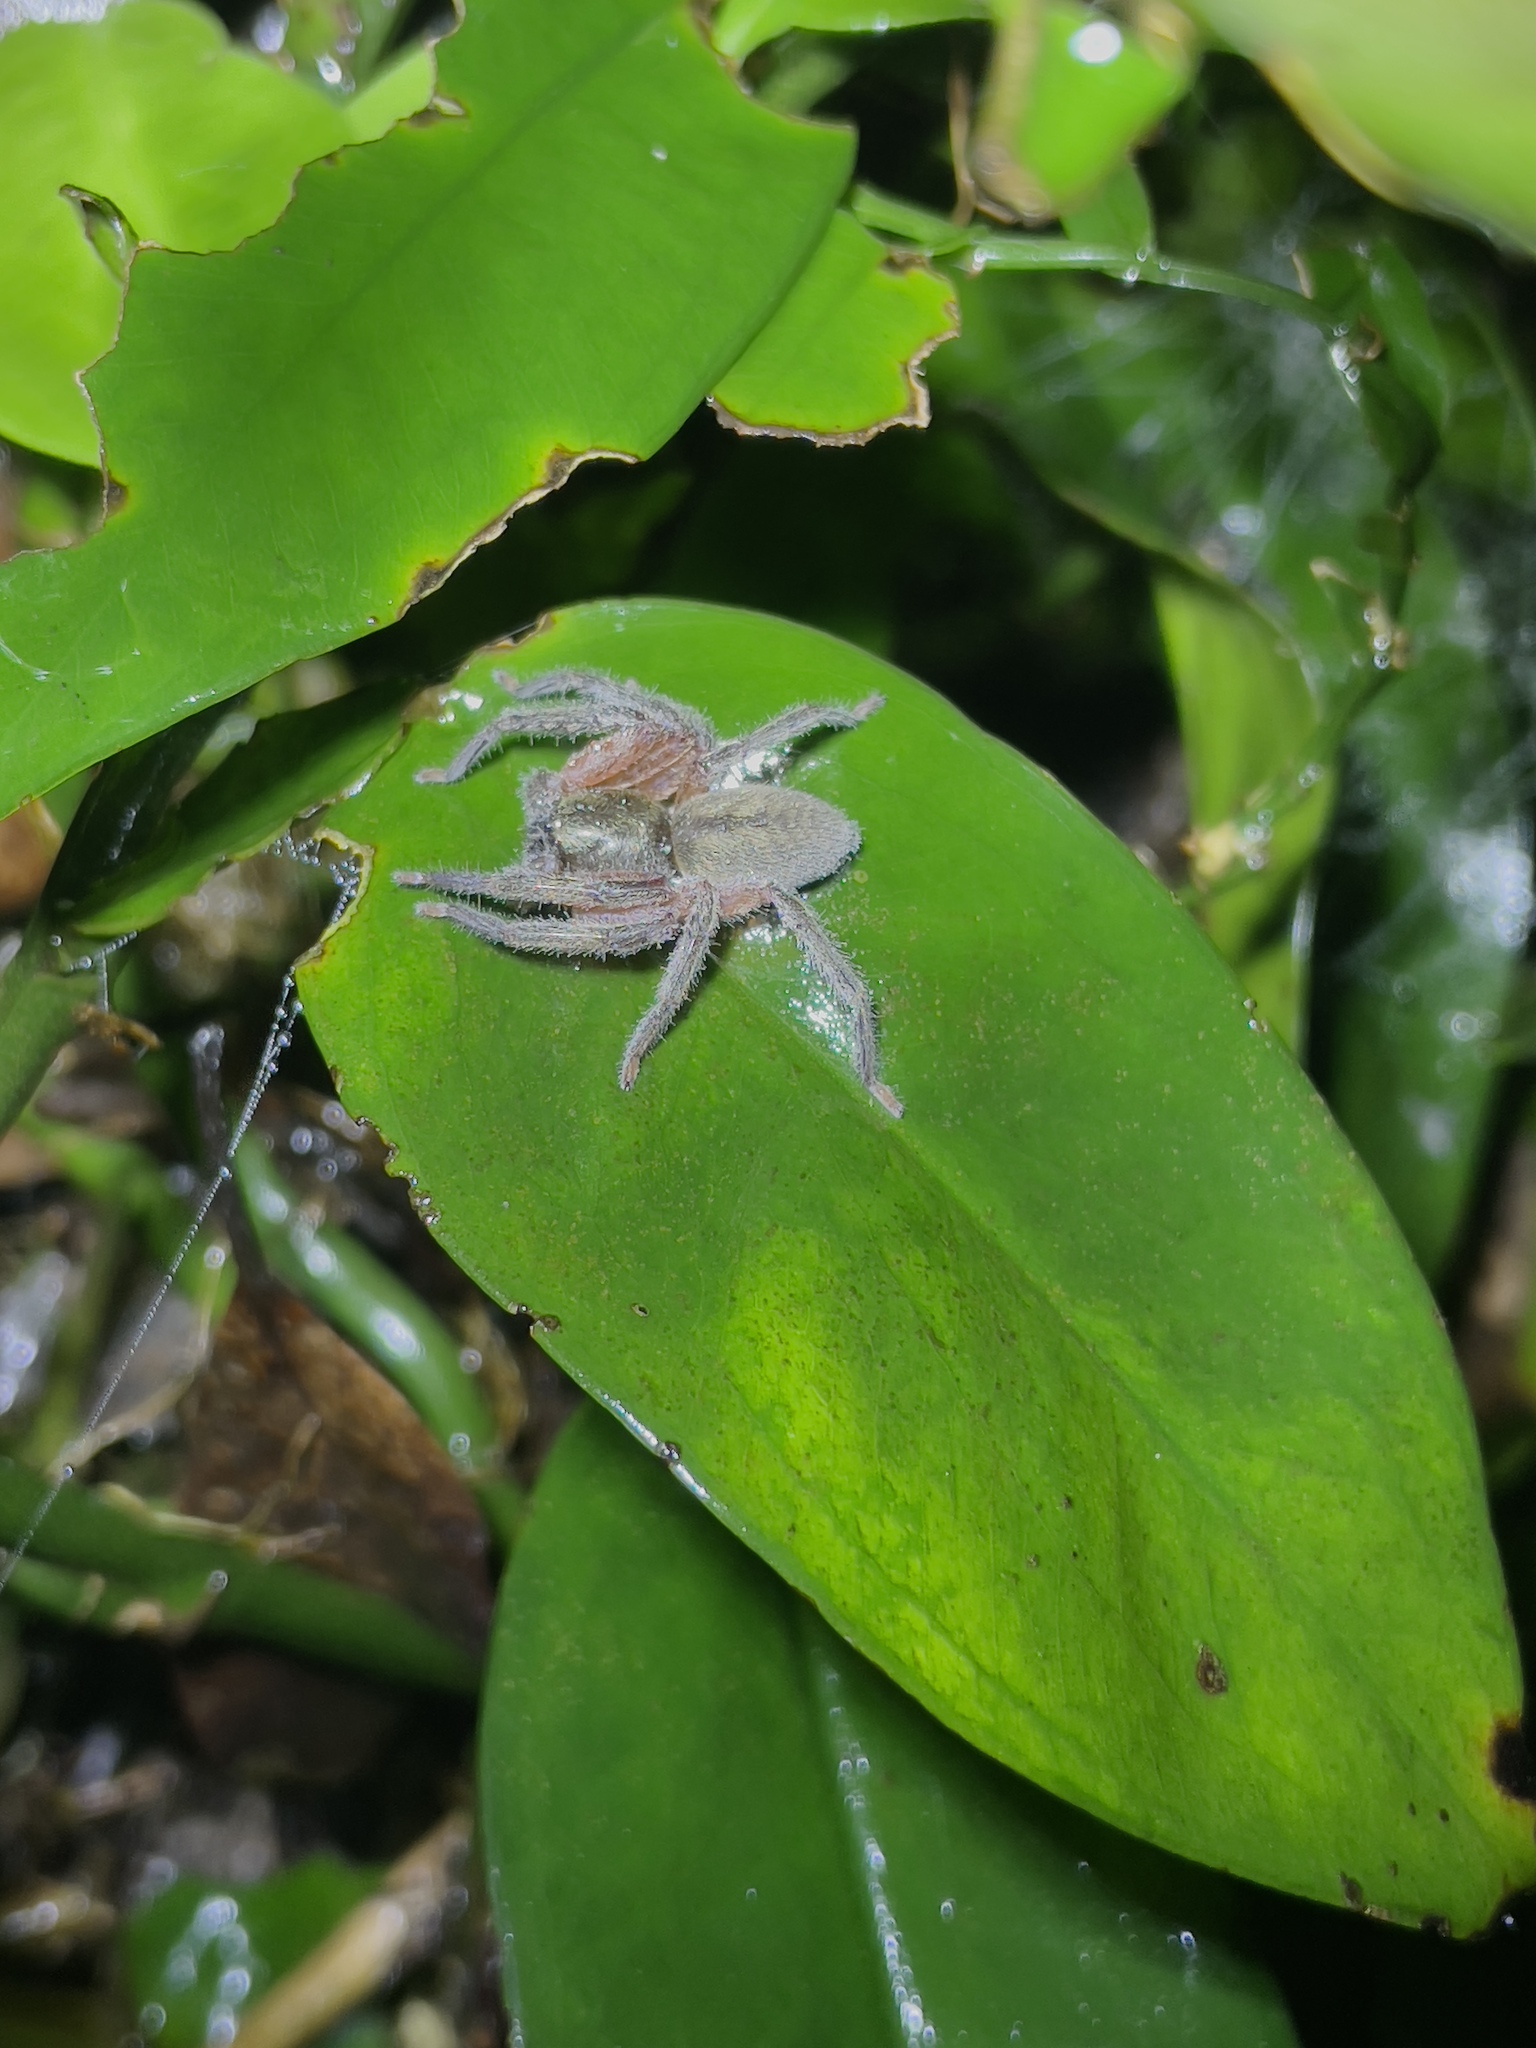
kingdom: Animalia
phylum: Arthropoda
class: Arachnida
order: Araneae
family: Sparassidae
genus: Thelcticopis
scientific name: Thelcticopis severa
